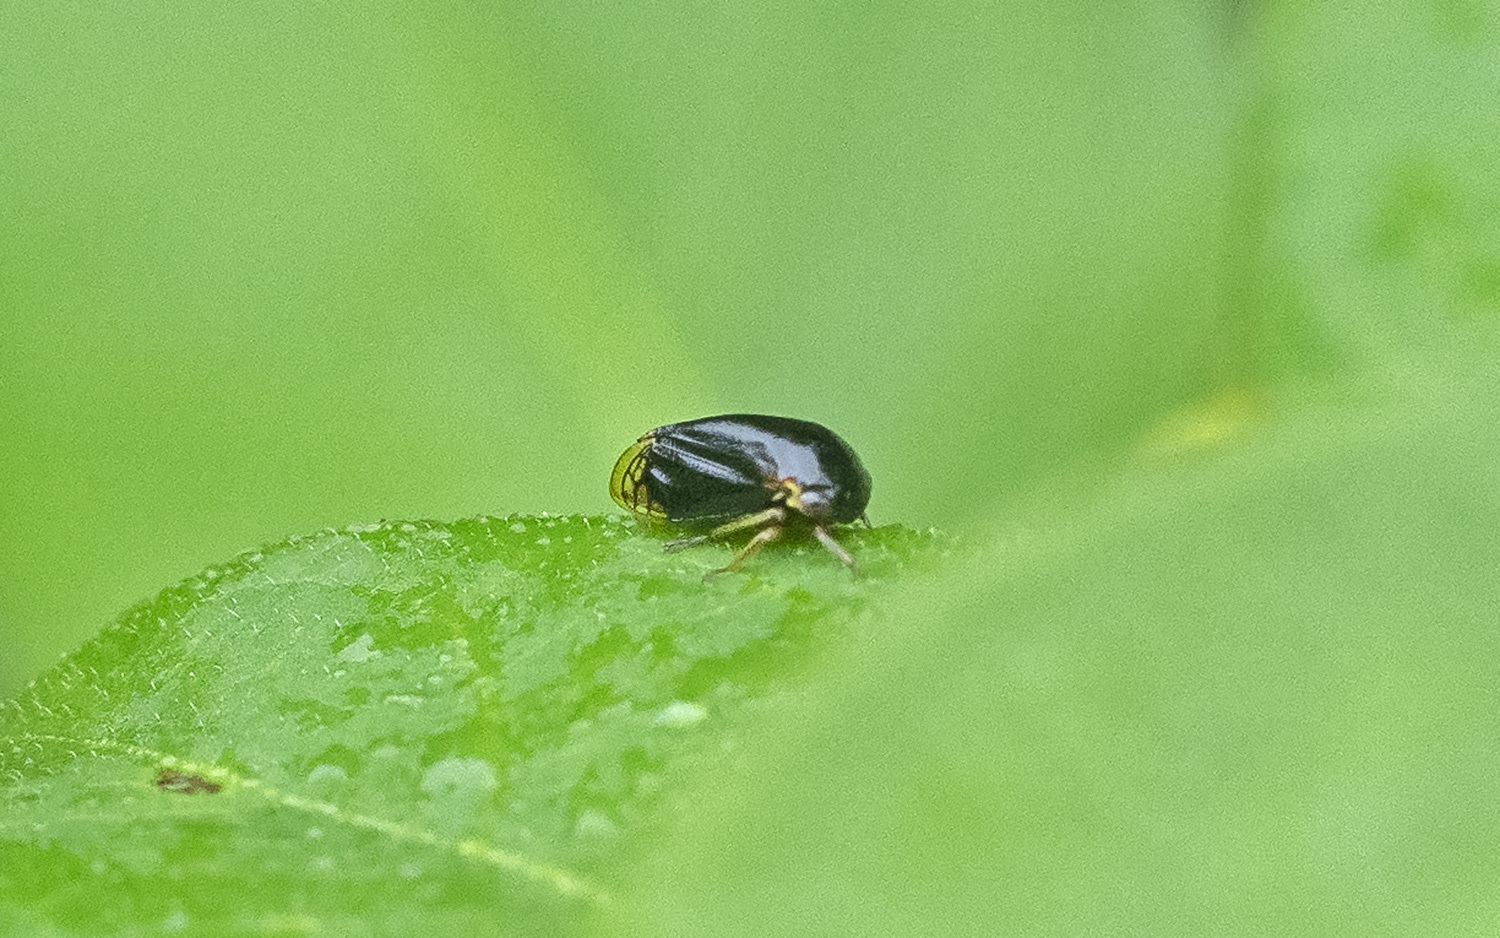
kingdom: Animalia
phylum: Arthropoda
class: Insecta
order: Hemiptera
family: Membracidae
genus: Acutalis
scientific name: Acutalis tartarea
